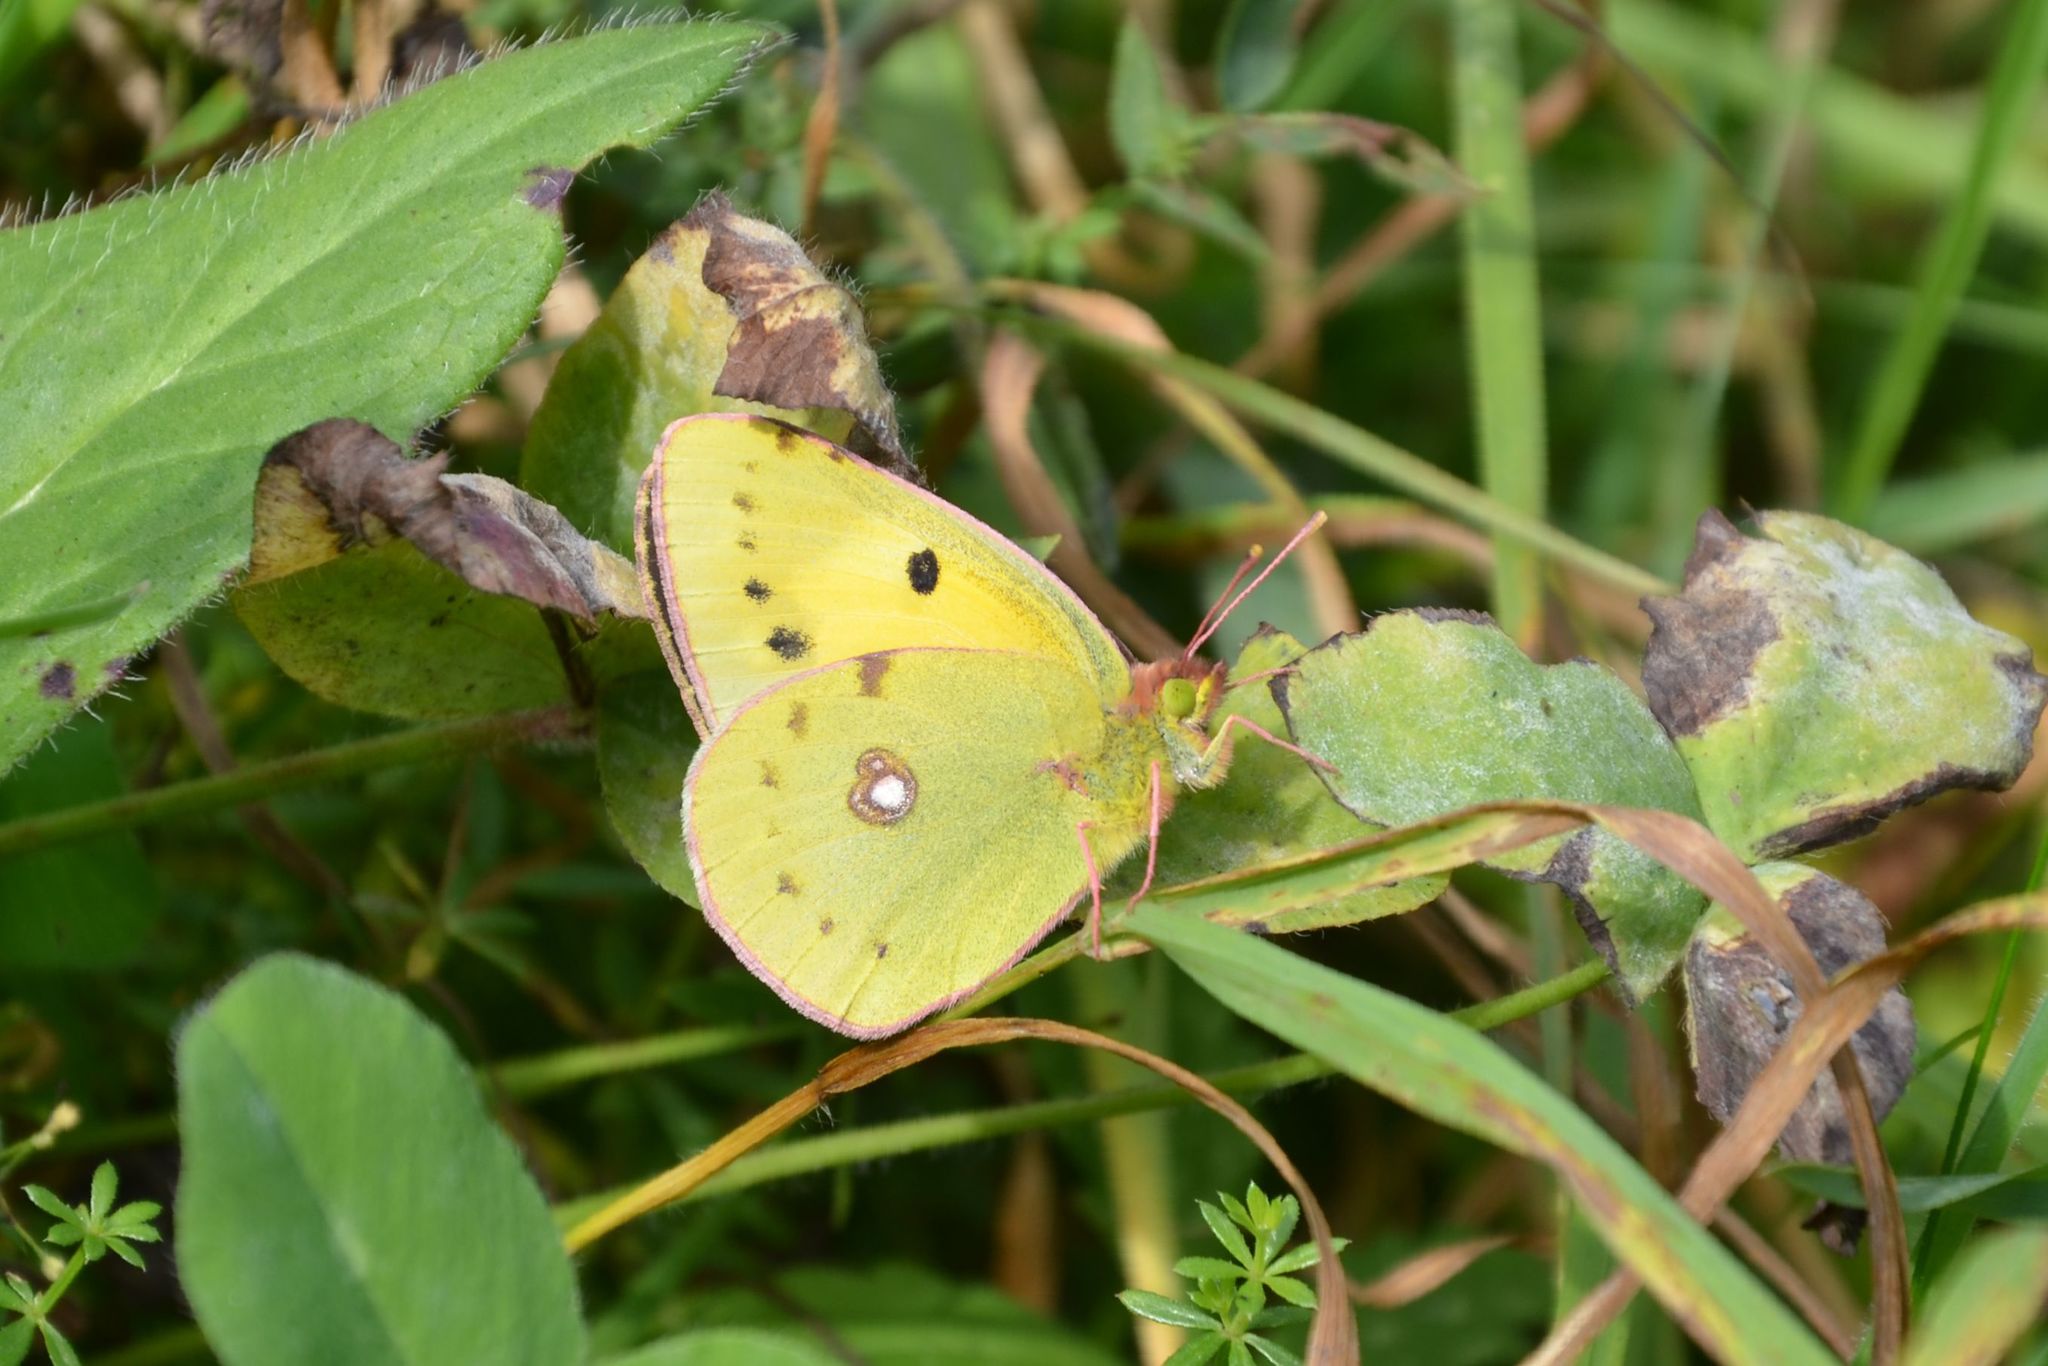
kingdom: Animalia
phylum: Arthropoda
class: Insecta
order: Lepidoptera
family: Pieridae
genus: Colias
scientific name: Colias croceus
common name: Clouded yellow
